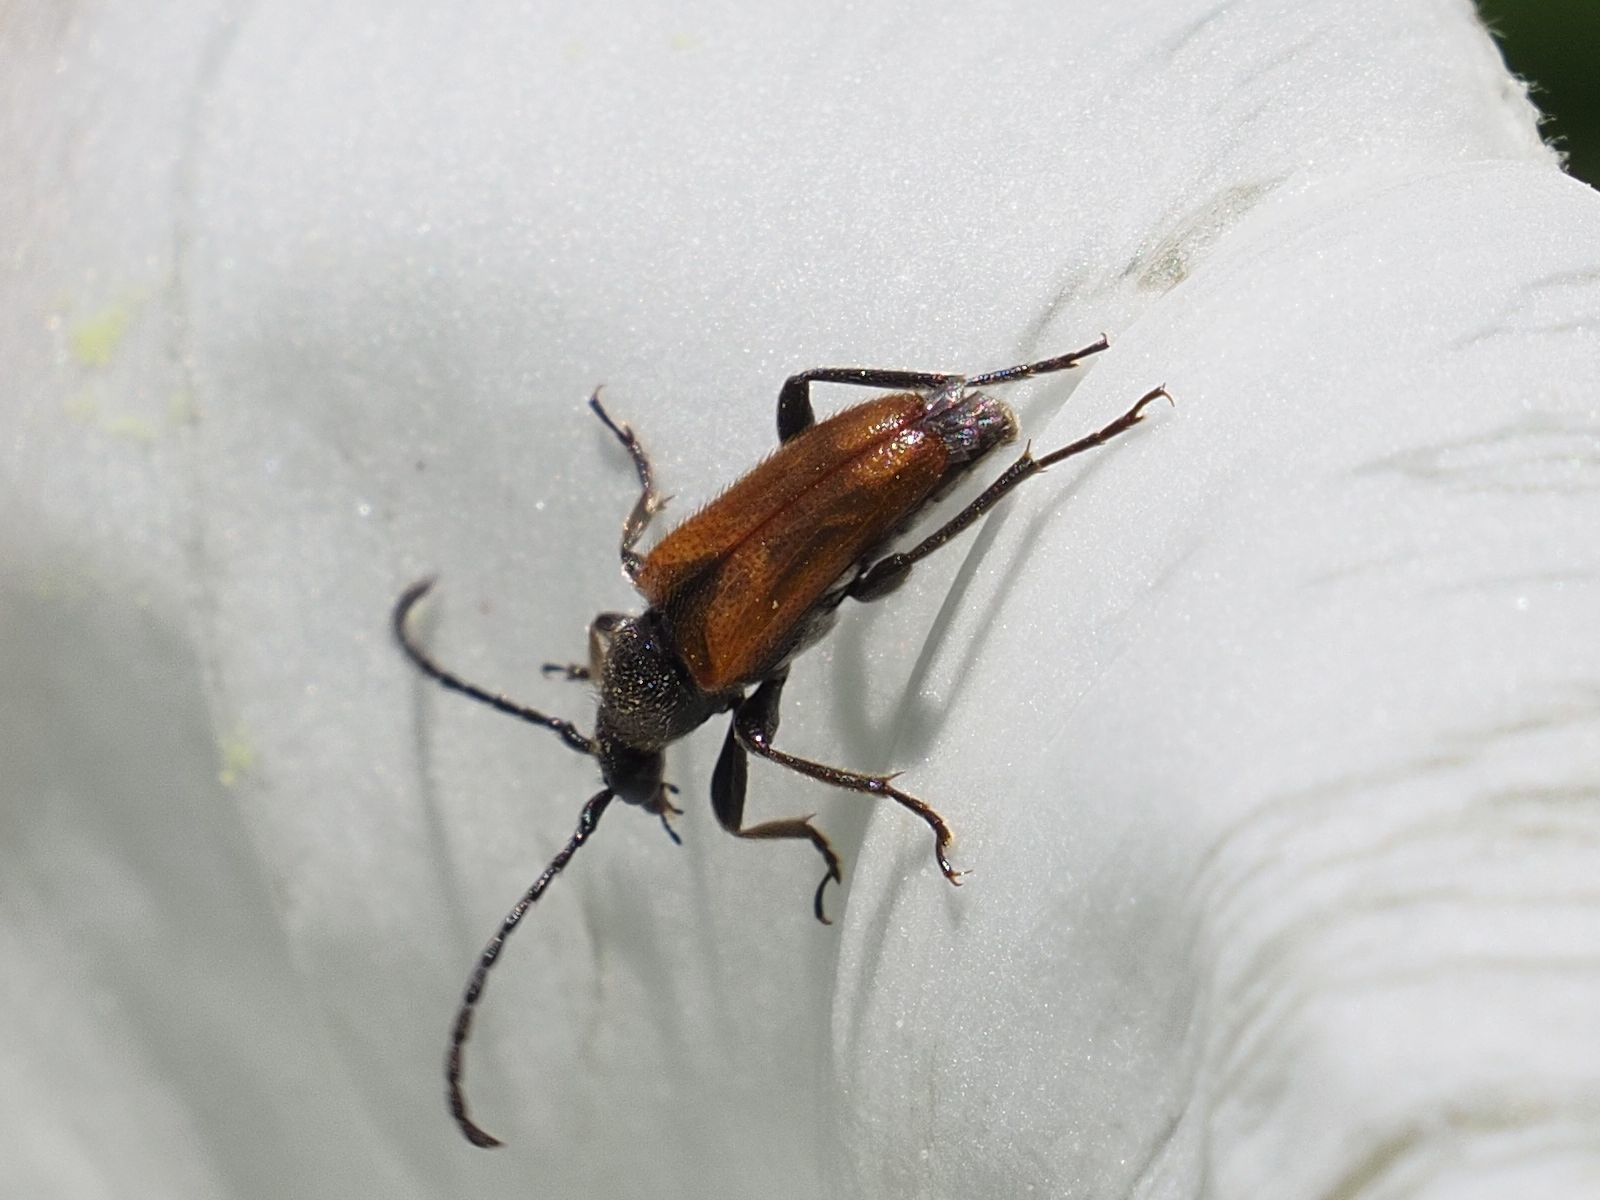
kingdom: Animalia
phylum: Arthropoda
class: Insecta
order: Coleoptera
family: Cerambycidae
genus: Pseudovadonia
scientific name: Pseudovadonia livida
